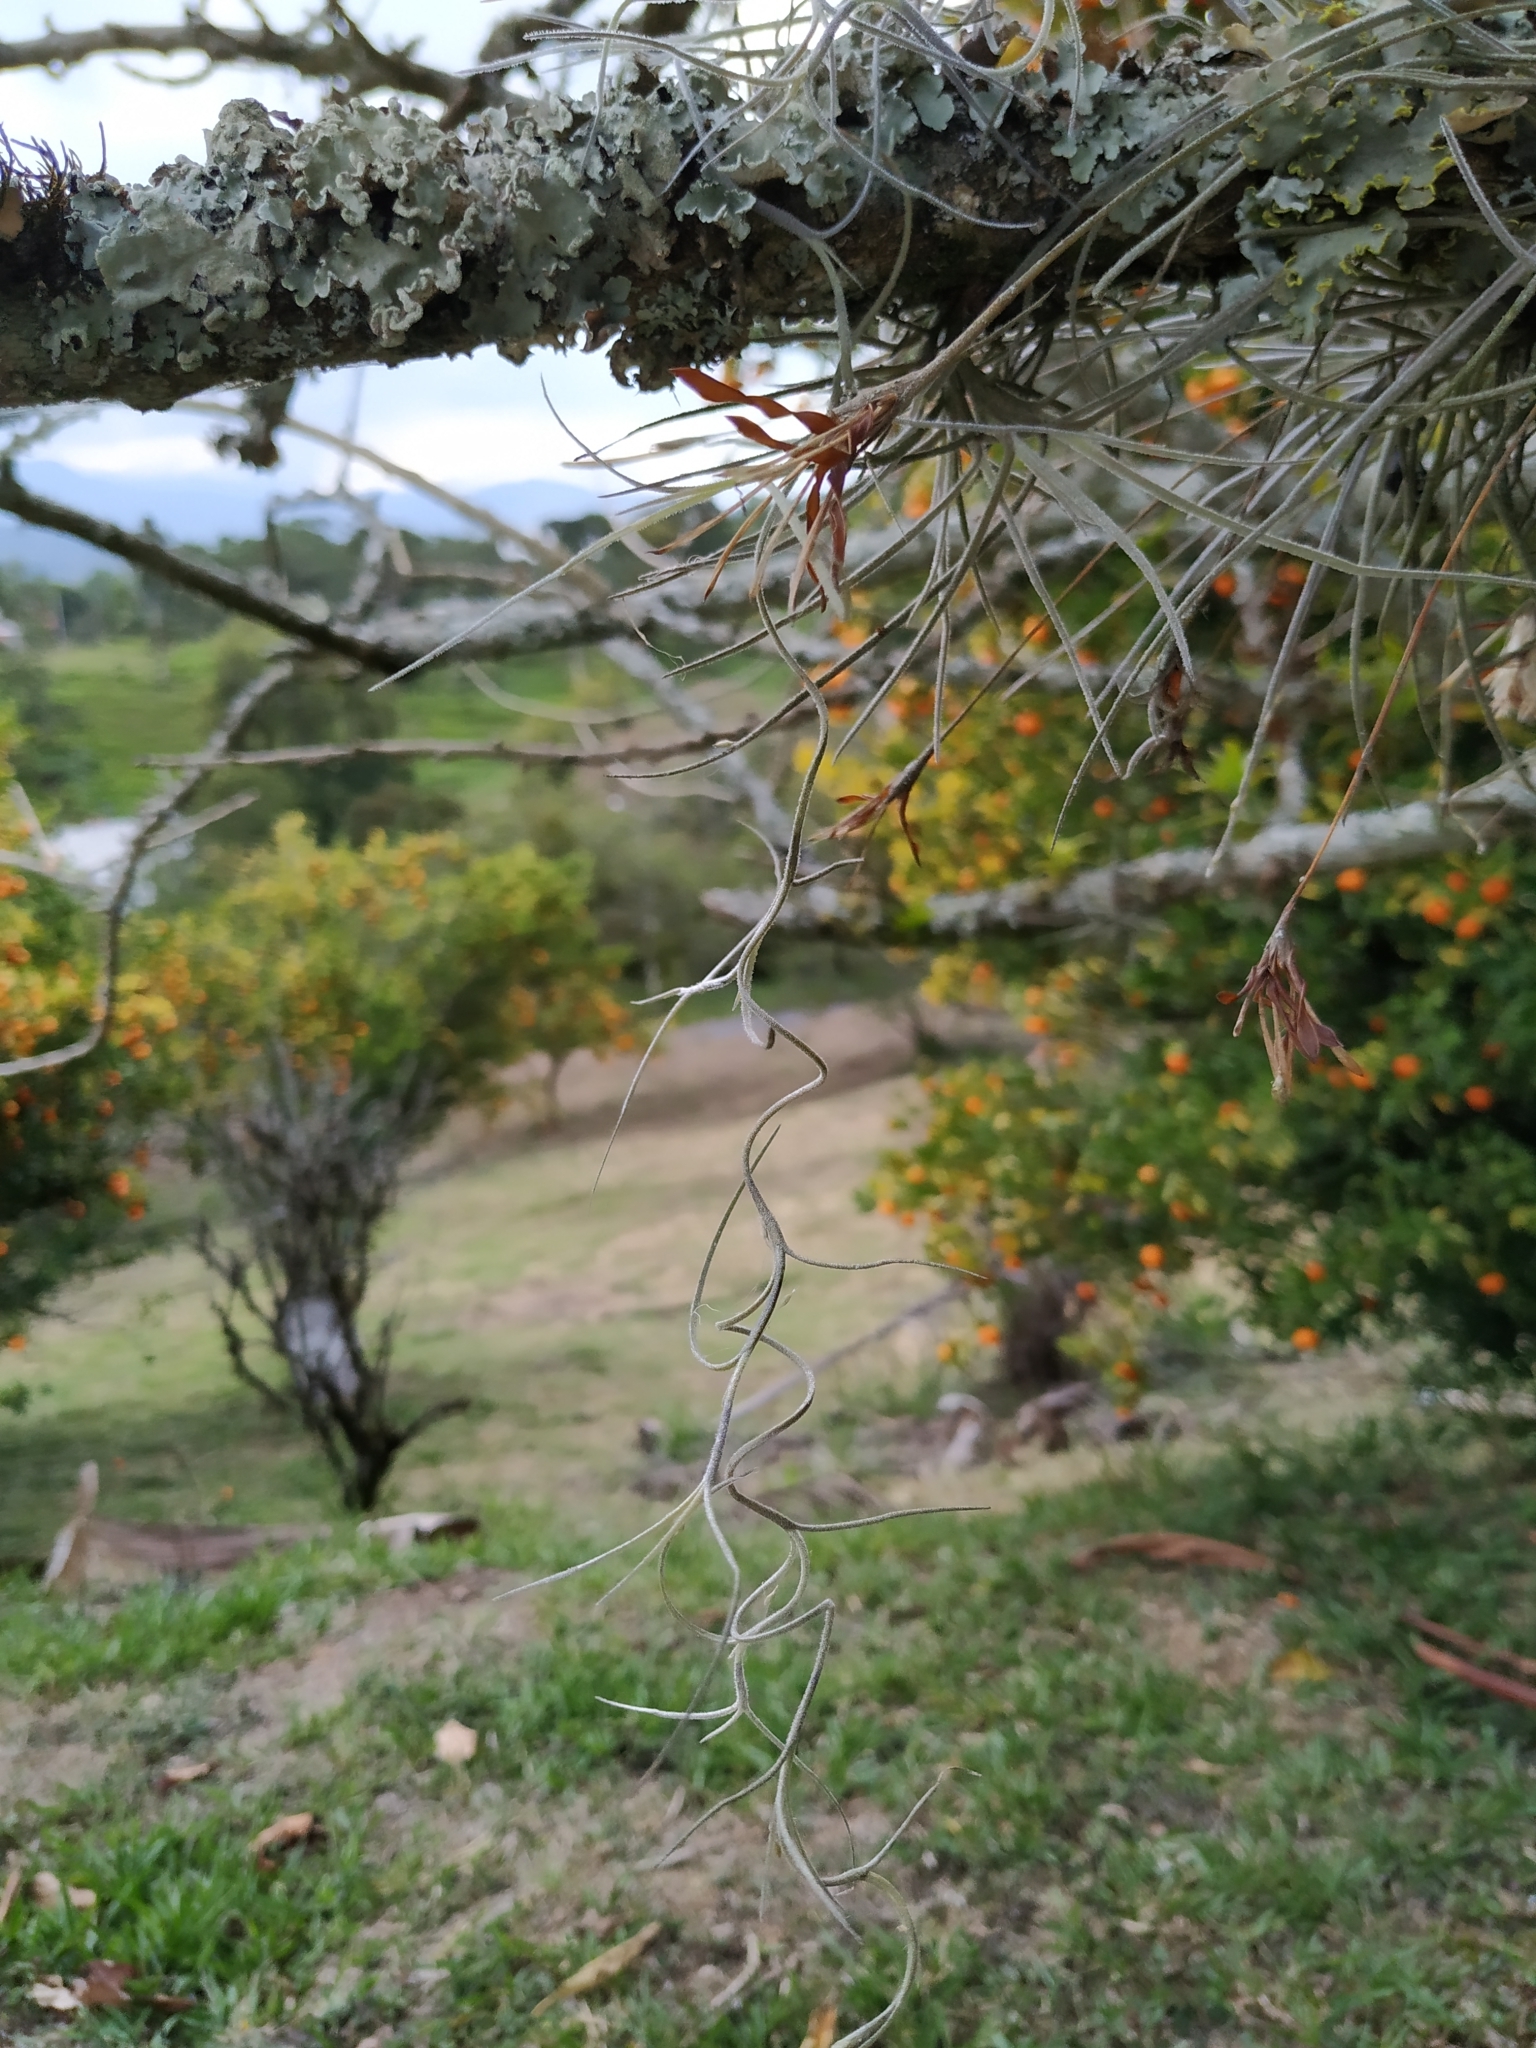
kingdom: Plantae
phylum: Tracheophyta
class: Liliopsida
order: Poales
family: Bromeliaceae
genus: Tillandsia
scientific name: Tillandsia usneoides
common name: Spanish moss
